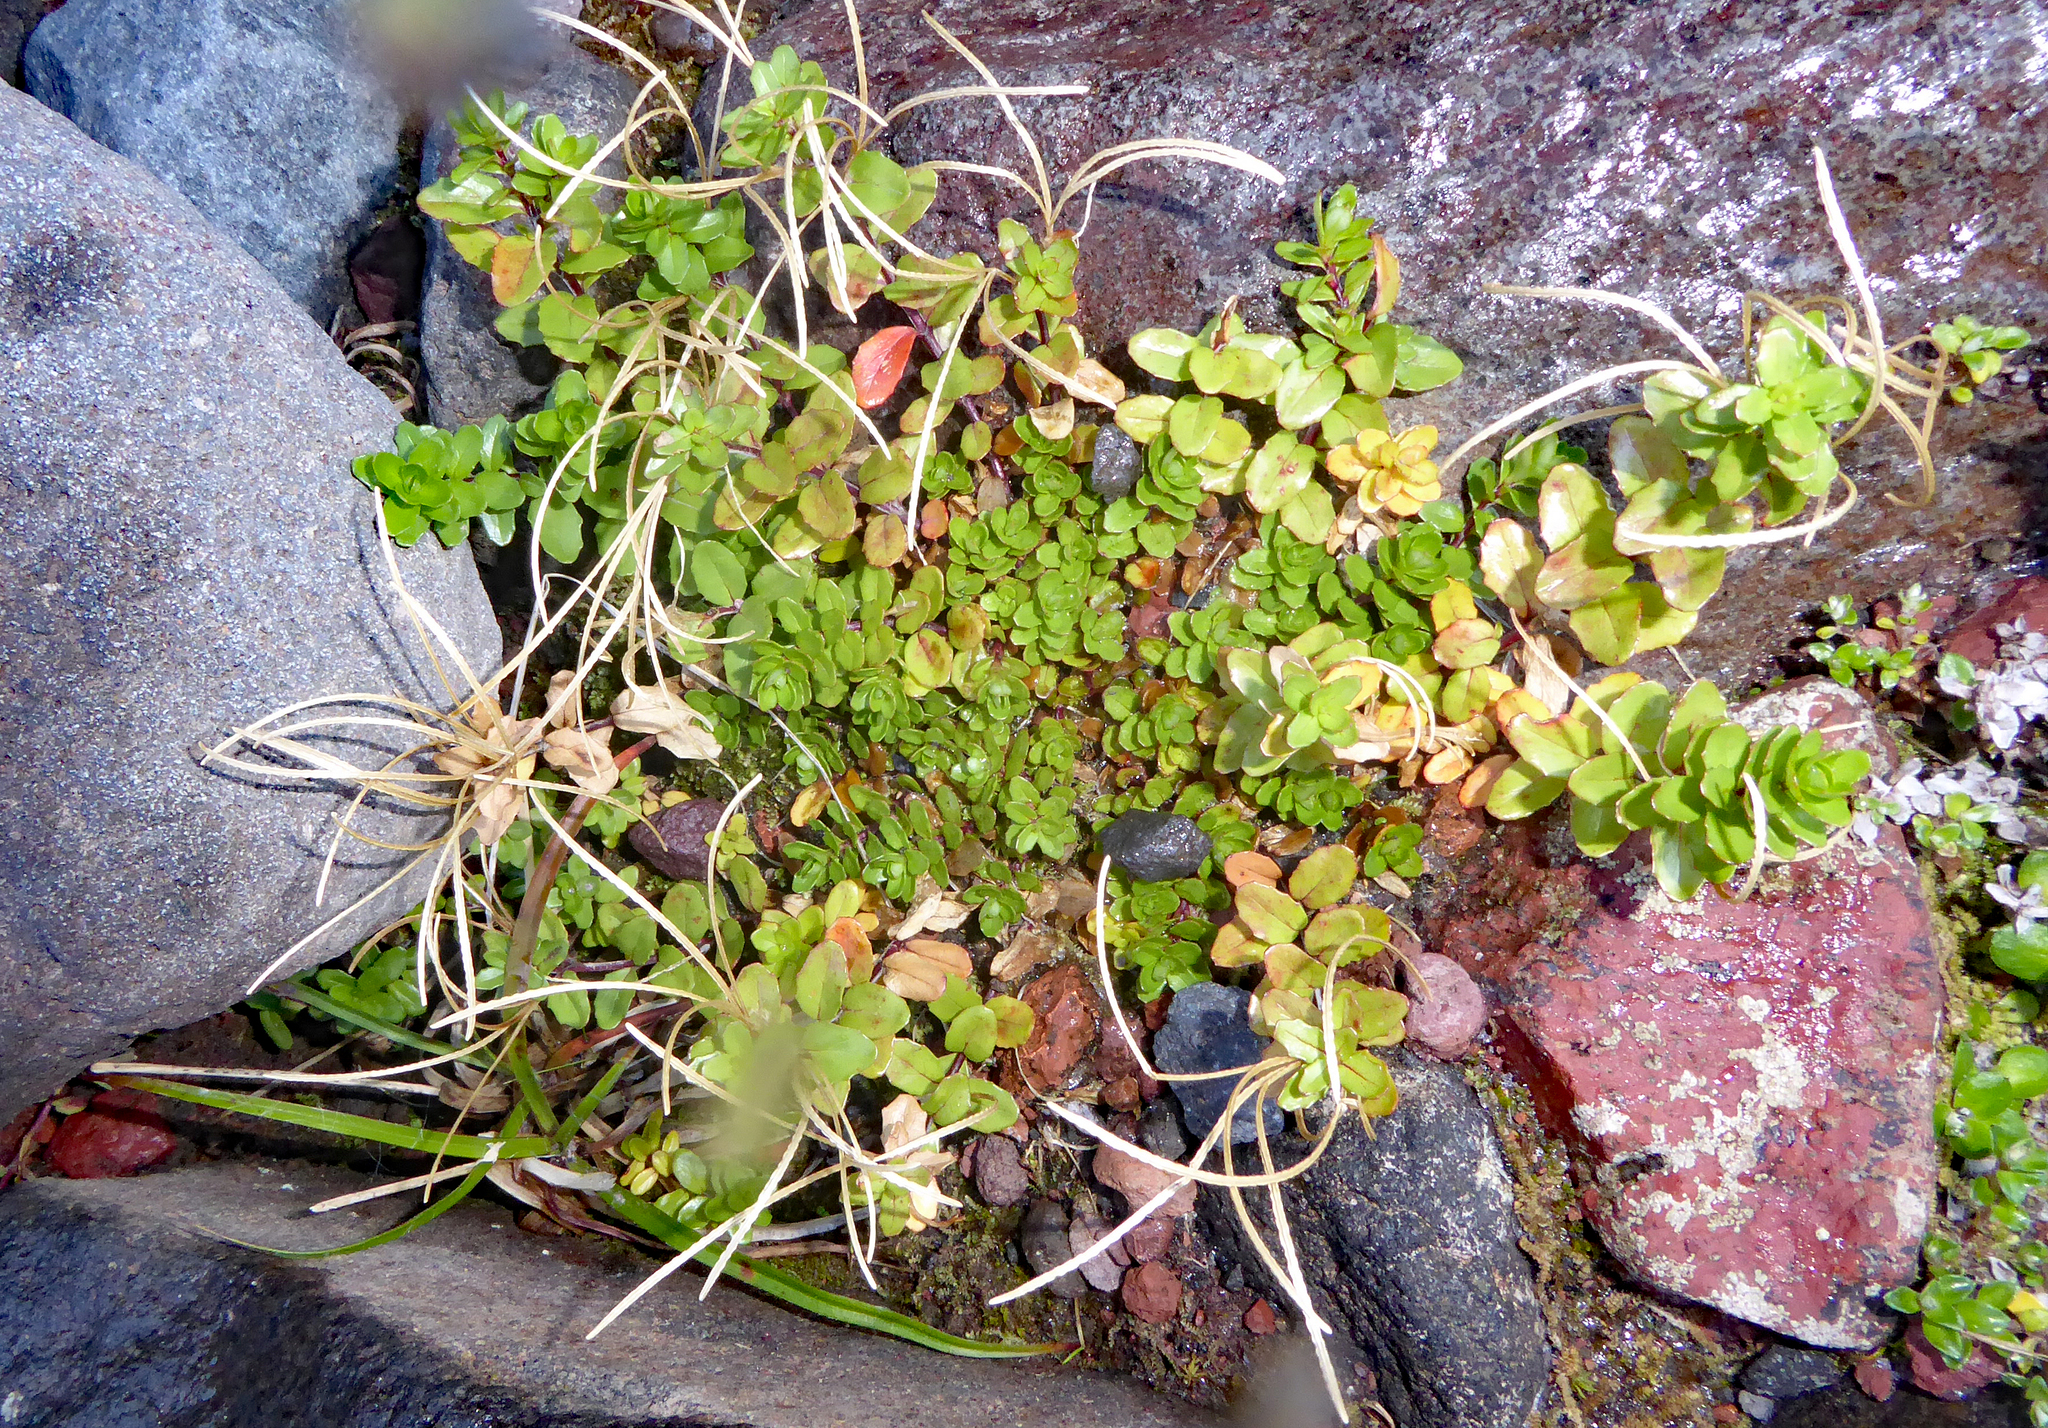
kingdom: Plantae
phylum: Tracheophyta
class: Magnoliopsida
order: Myrtales
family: Onagraceae
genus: Epilobium
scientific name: Epilobium glabellum
